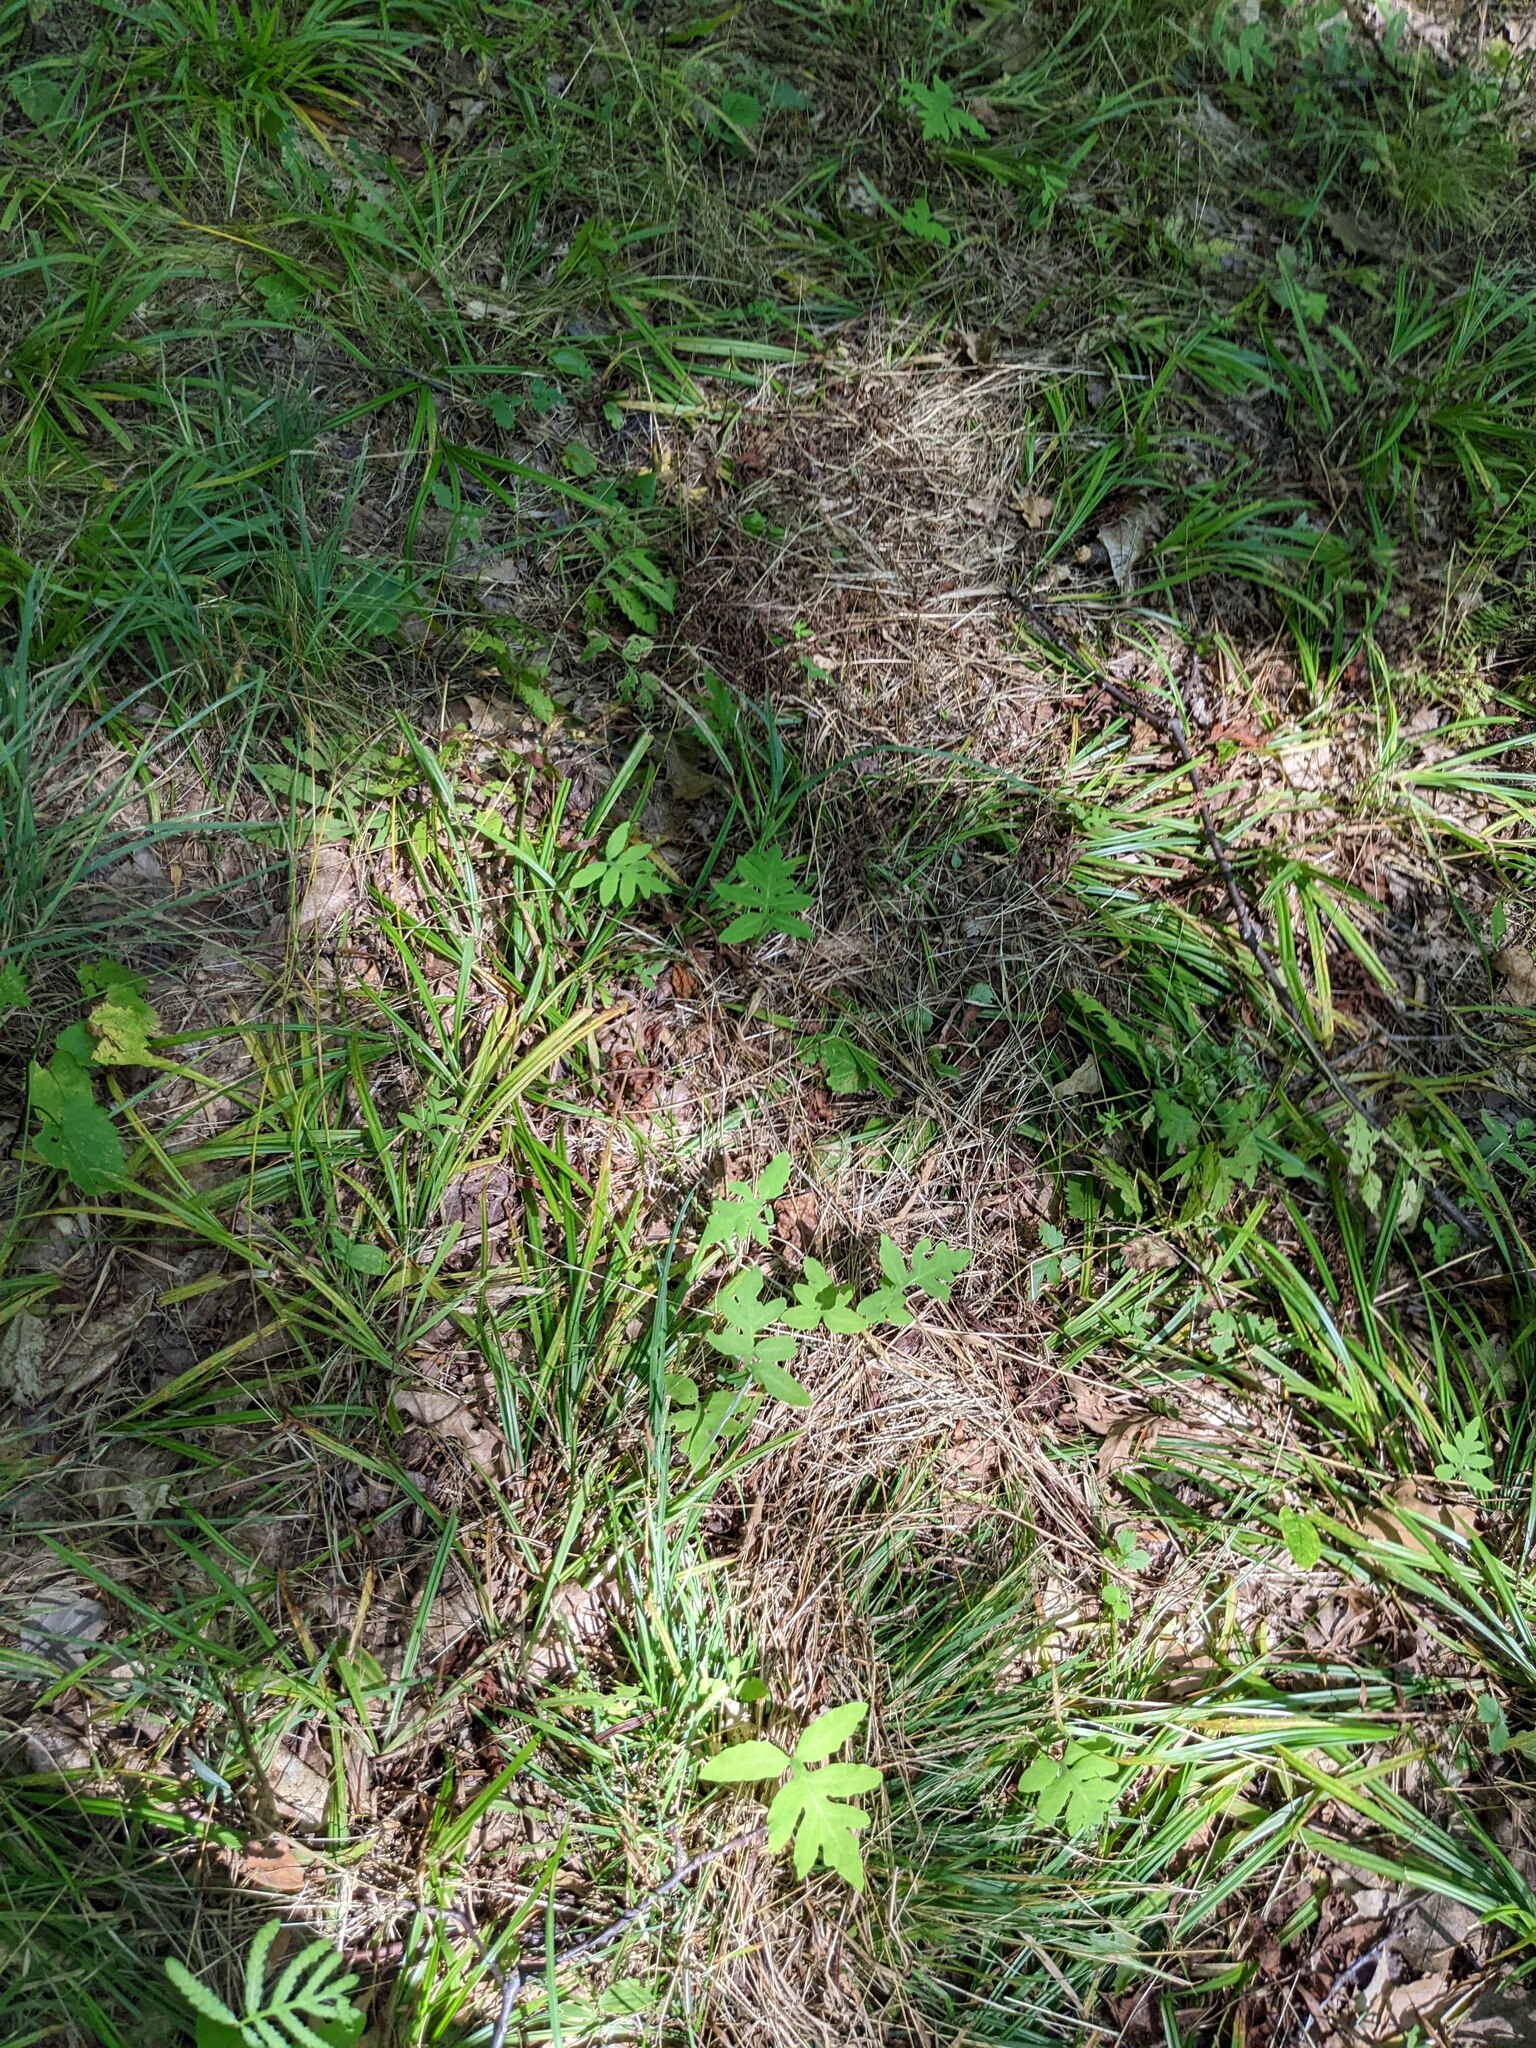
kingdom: Plantae
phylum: Tracheophyta
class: Polypodiopsida
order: Polypodiales
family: Onocleaceae
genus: Onoclea
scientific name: Onoclea sensibilis
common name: Sensitive fern
